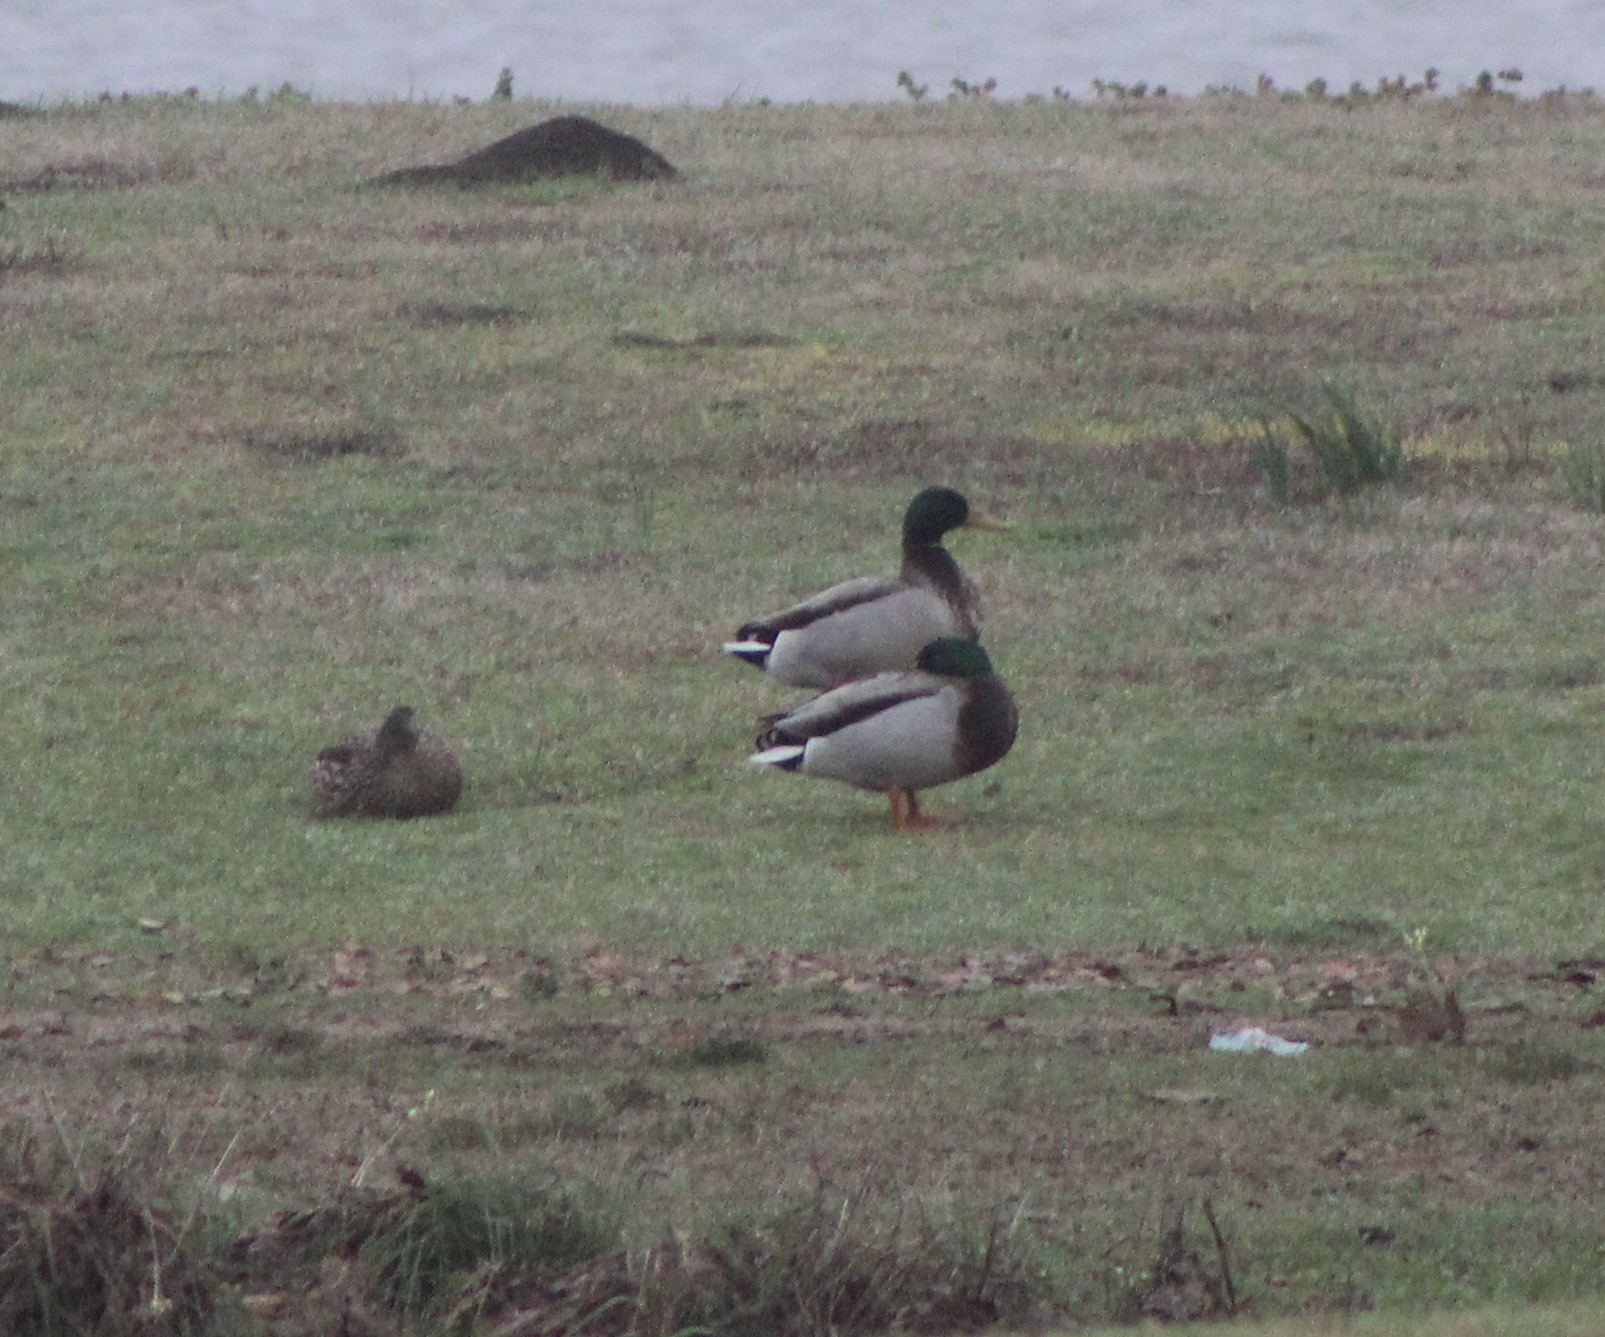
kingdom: Animalia
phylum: Chordata
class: Aves
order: Anseriformes
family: Anatidae
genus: Anas
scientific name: Anas platyrhynchos
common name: Mallard
